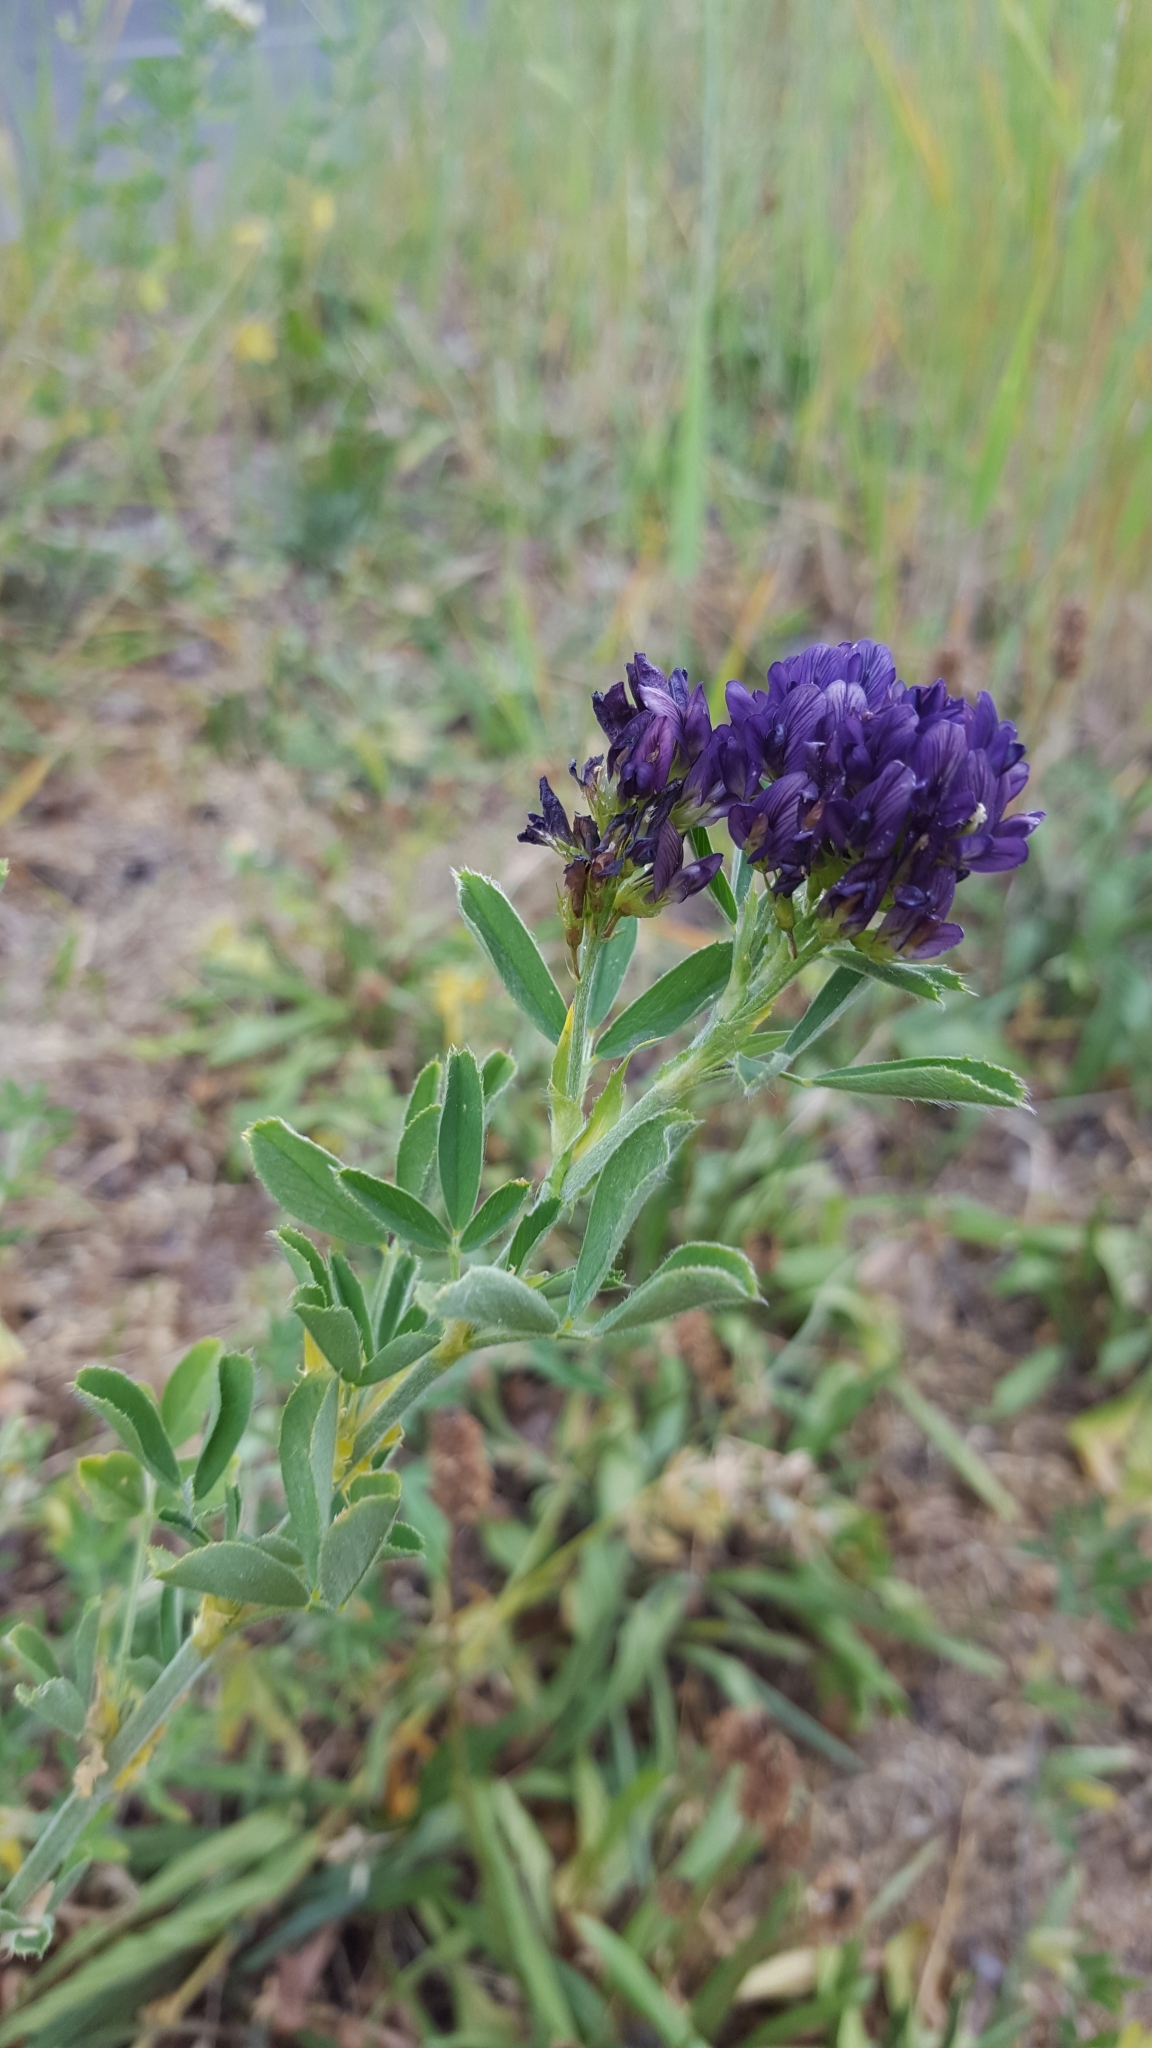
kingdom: Plantae
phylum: Tracheophyta
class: Magnoliopsida
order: Fabales
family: Fabaceae
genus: Medicago
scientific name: Medicago sativa
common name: Alfalfa
